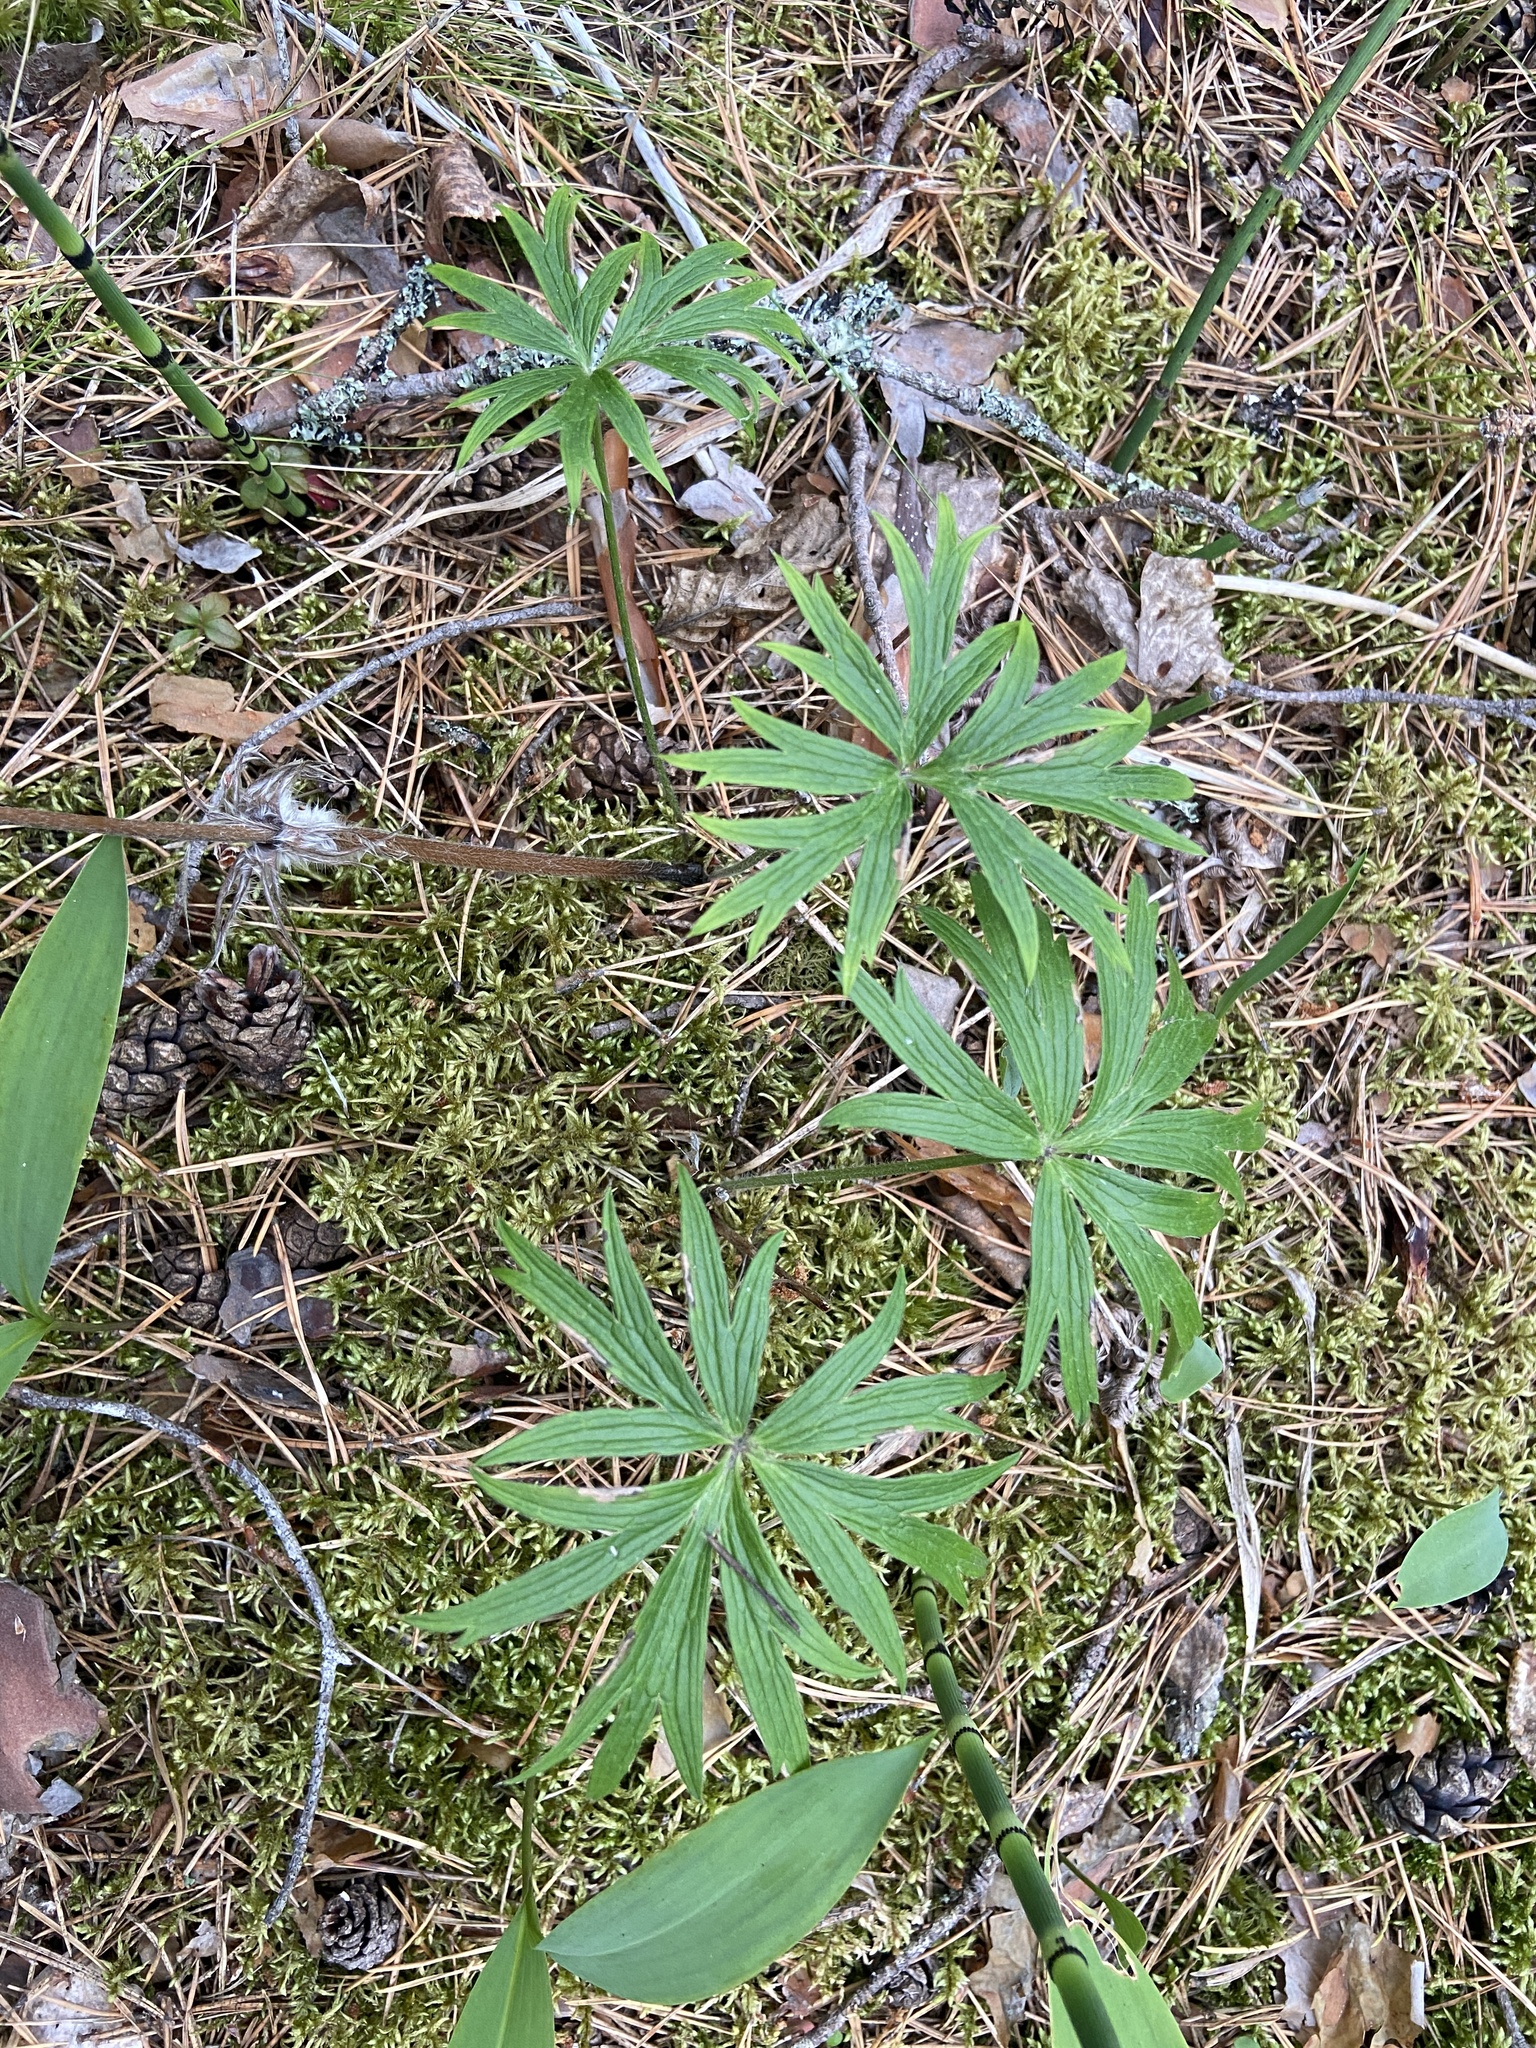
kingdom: Plantae
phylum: Tracheophyta
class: Magnoliopsida
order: Ranunculales
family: Ranunculaceae
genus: Pulsatilla
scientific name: Pulsatilla patens
